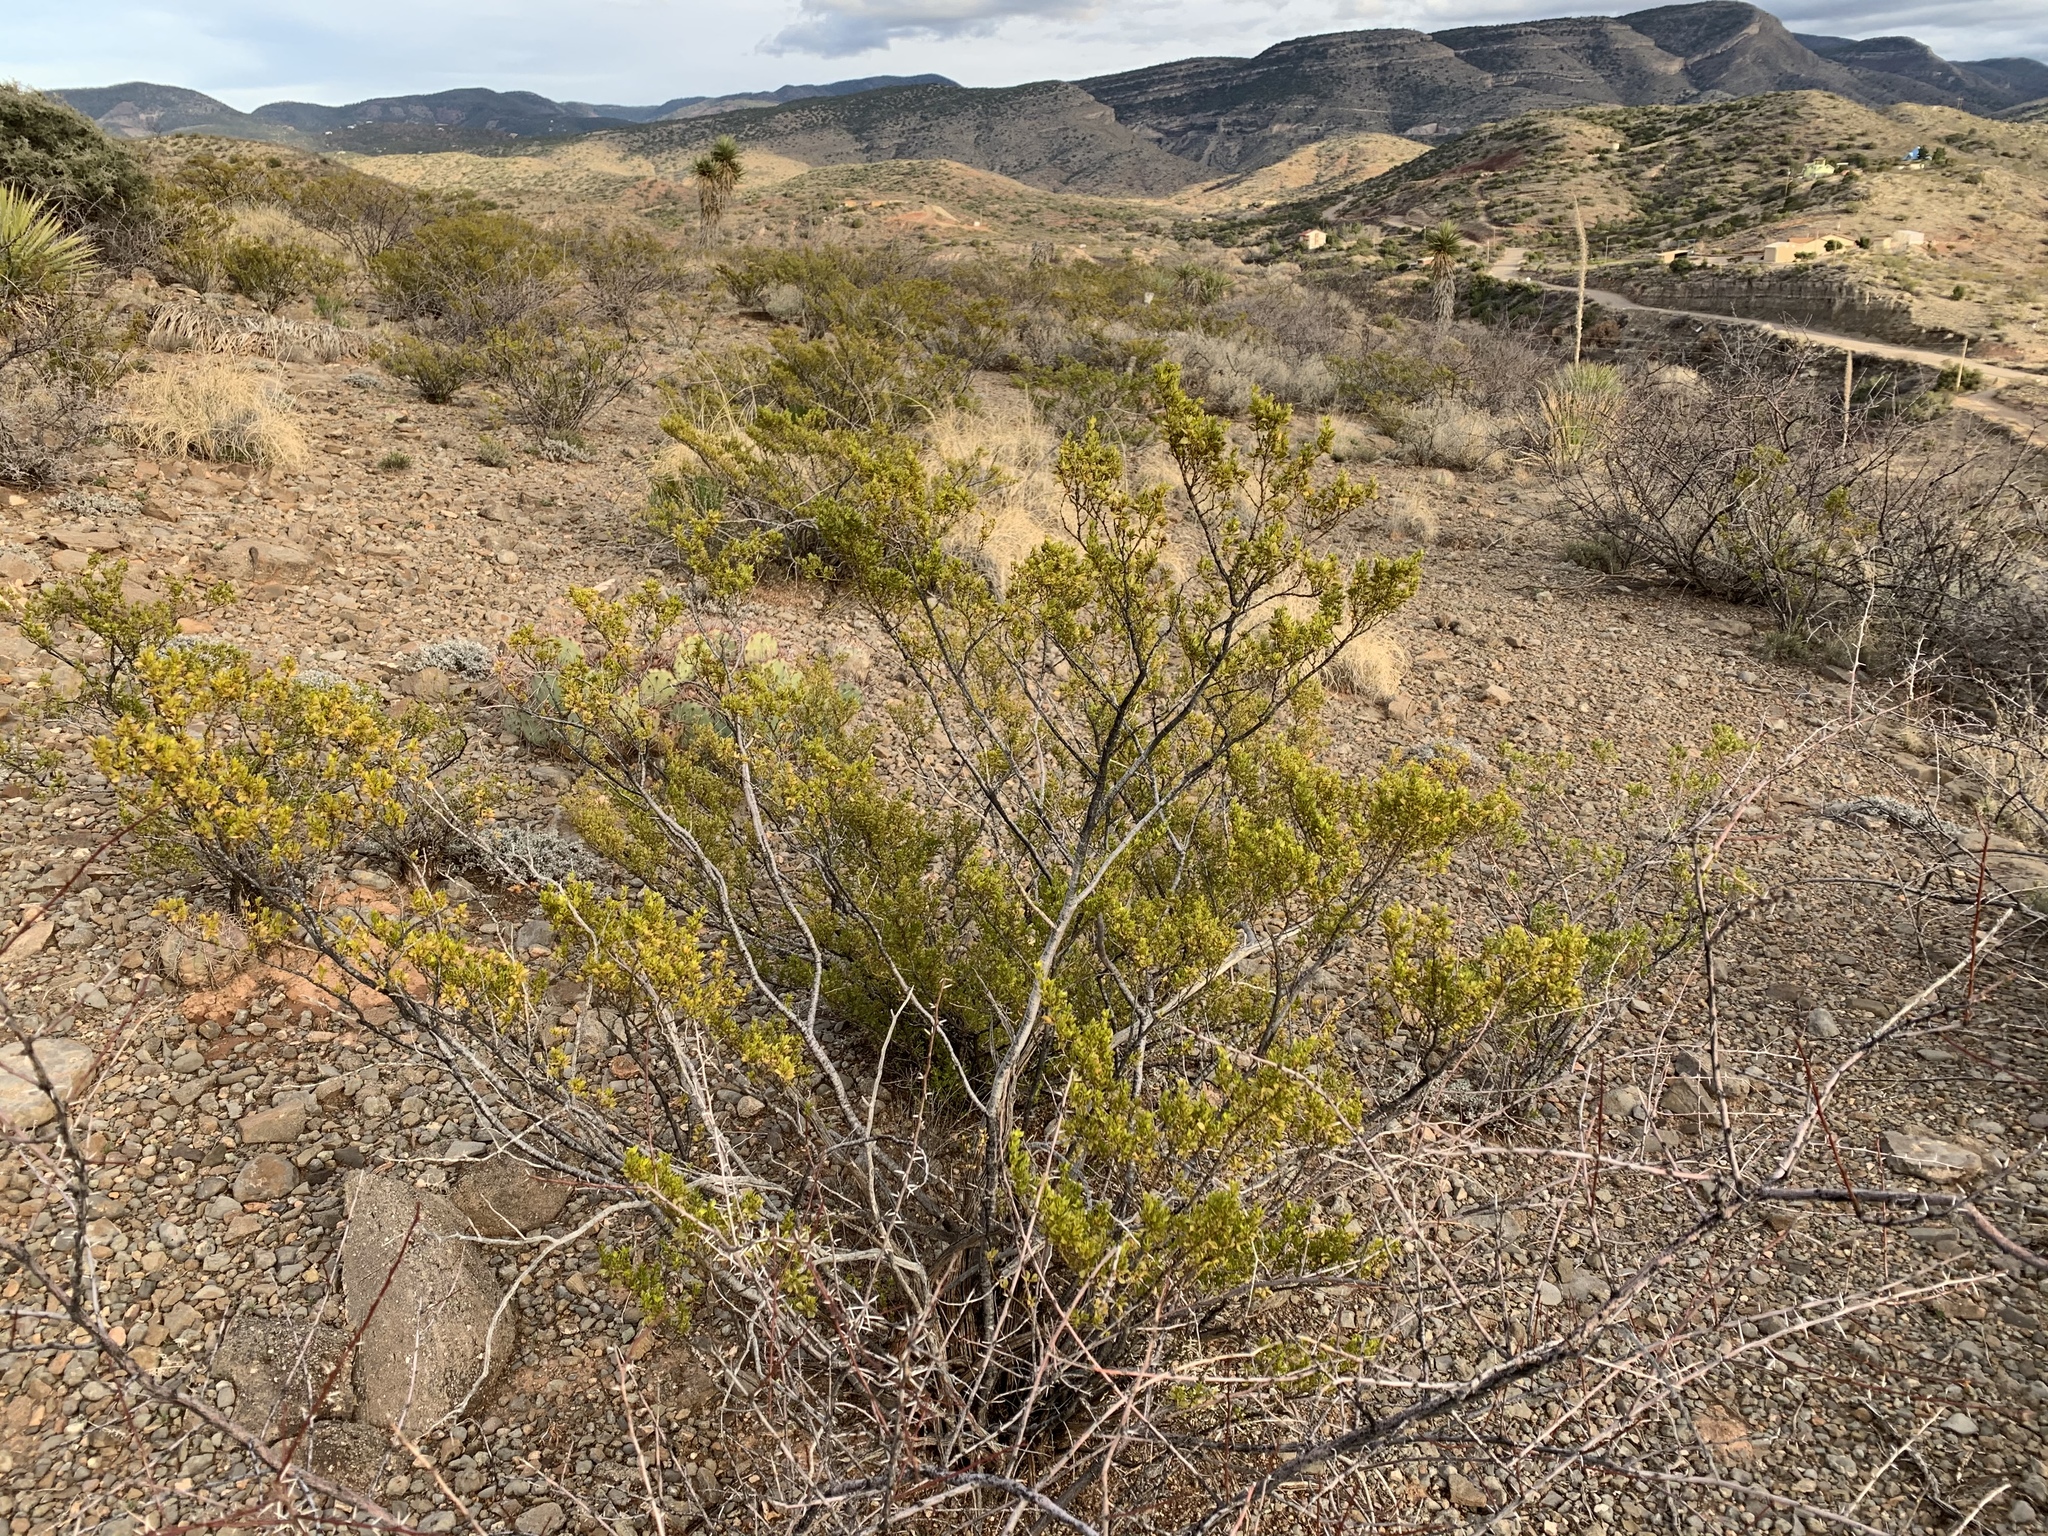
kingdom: Plantae
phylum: Tracheophyta
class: Magnoliopsida
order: Zygophyllales
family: Zygophyllaceae
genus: Larrea
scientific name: Larrea tridentata
